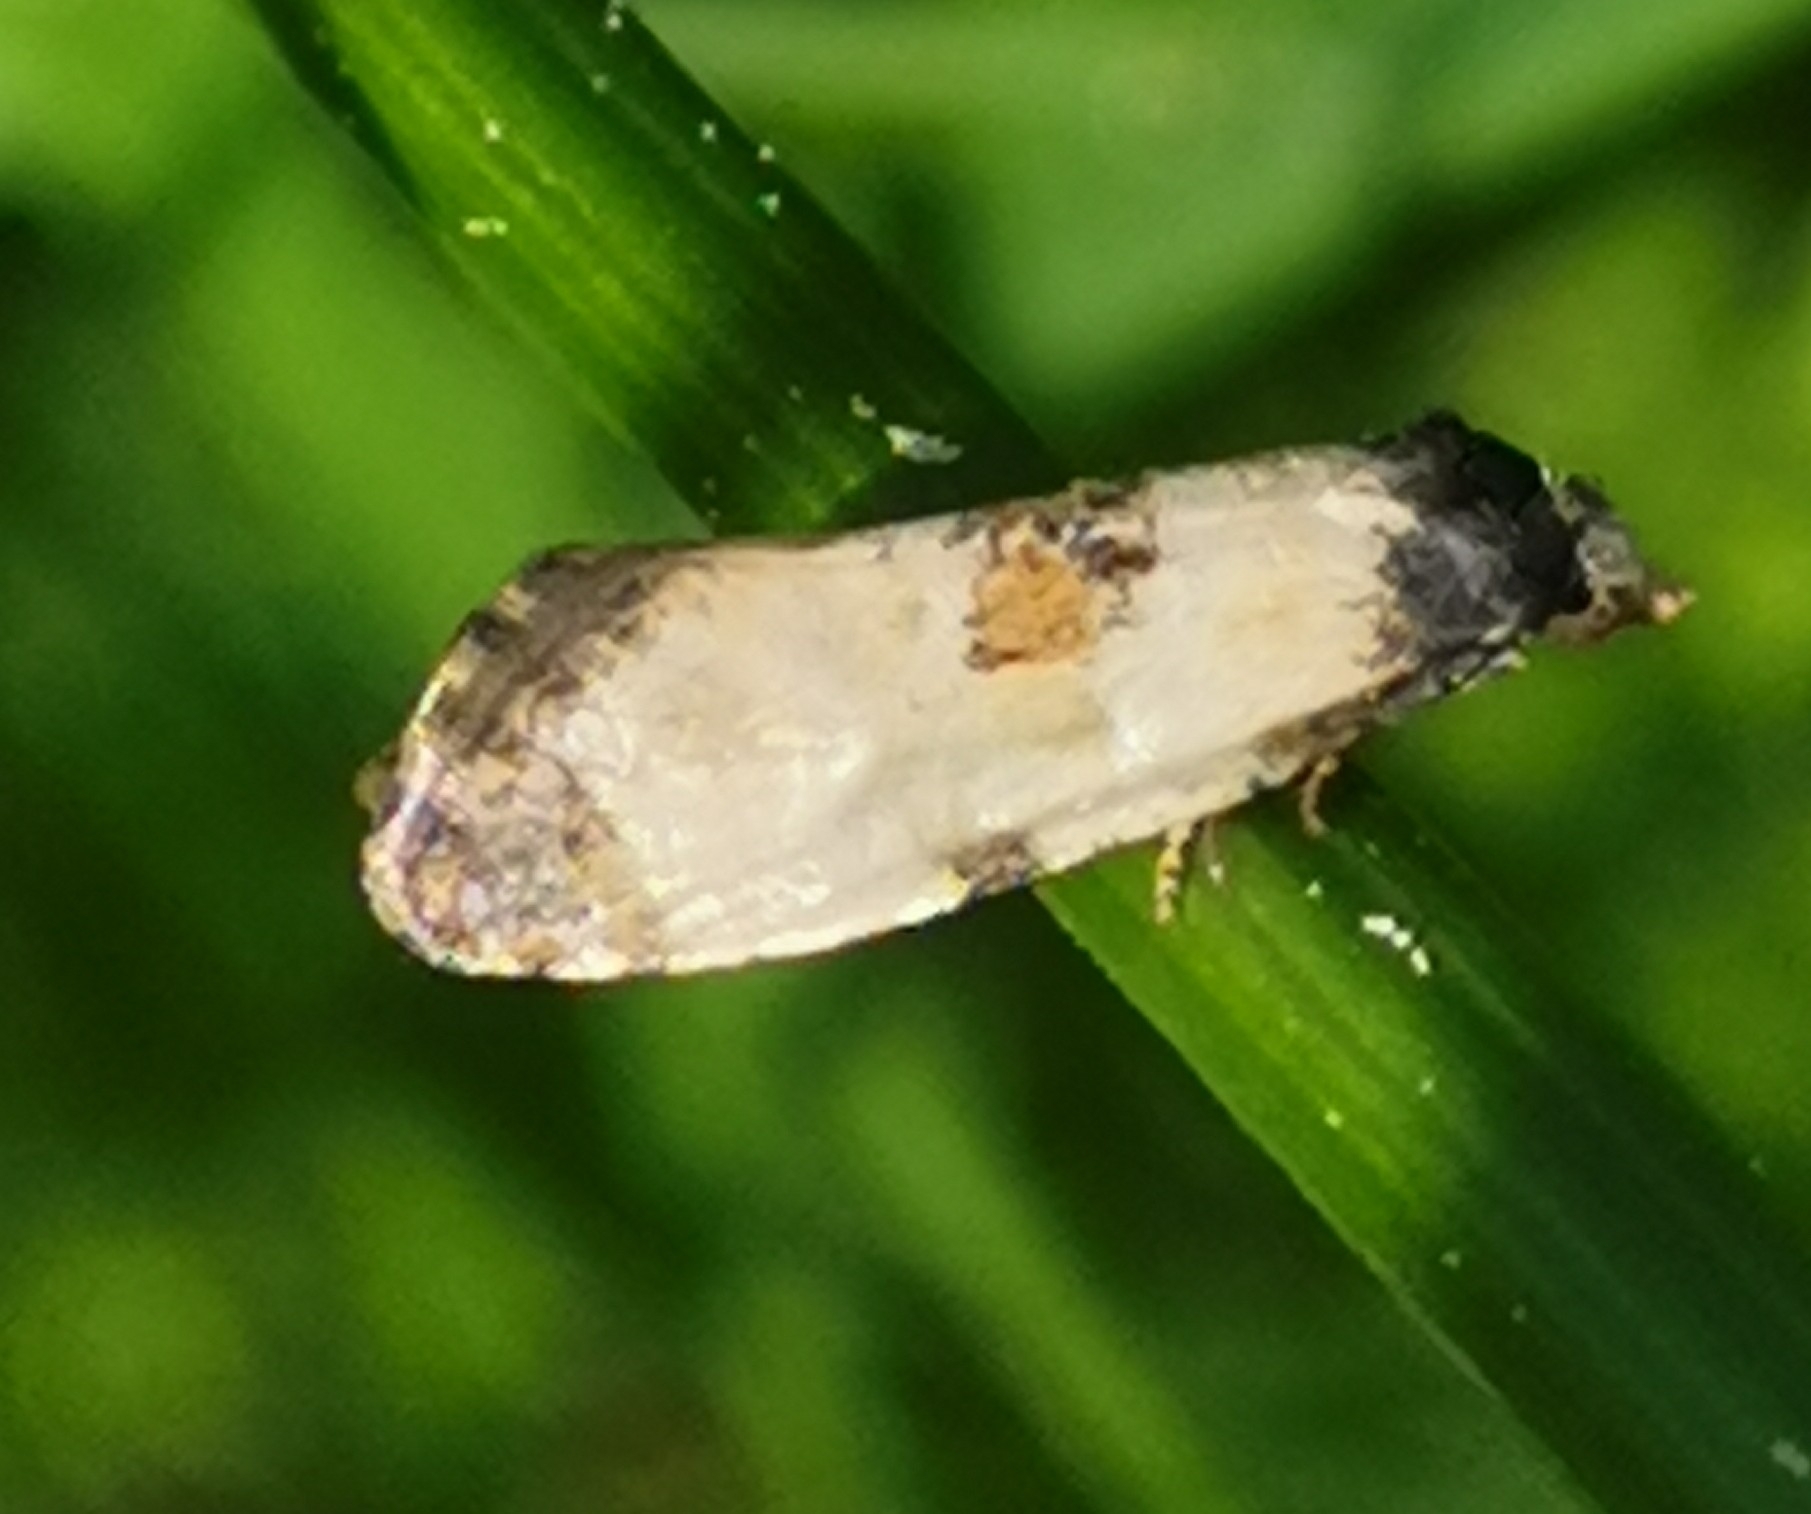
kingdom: Animalia
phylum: Arthropoda
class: Insecta
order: Lepidoptera
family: Tortricidae
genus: Cochylis
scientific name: Cochylis dubitana
